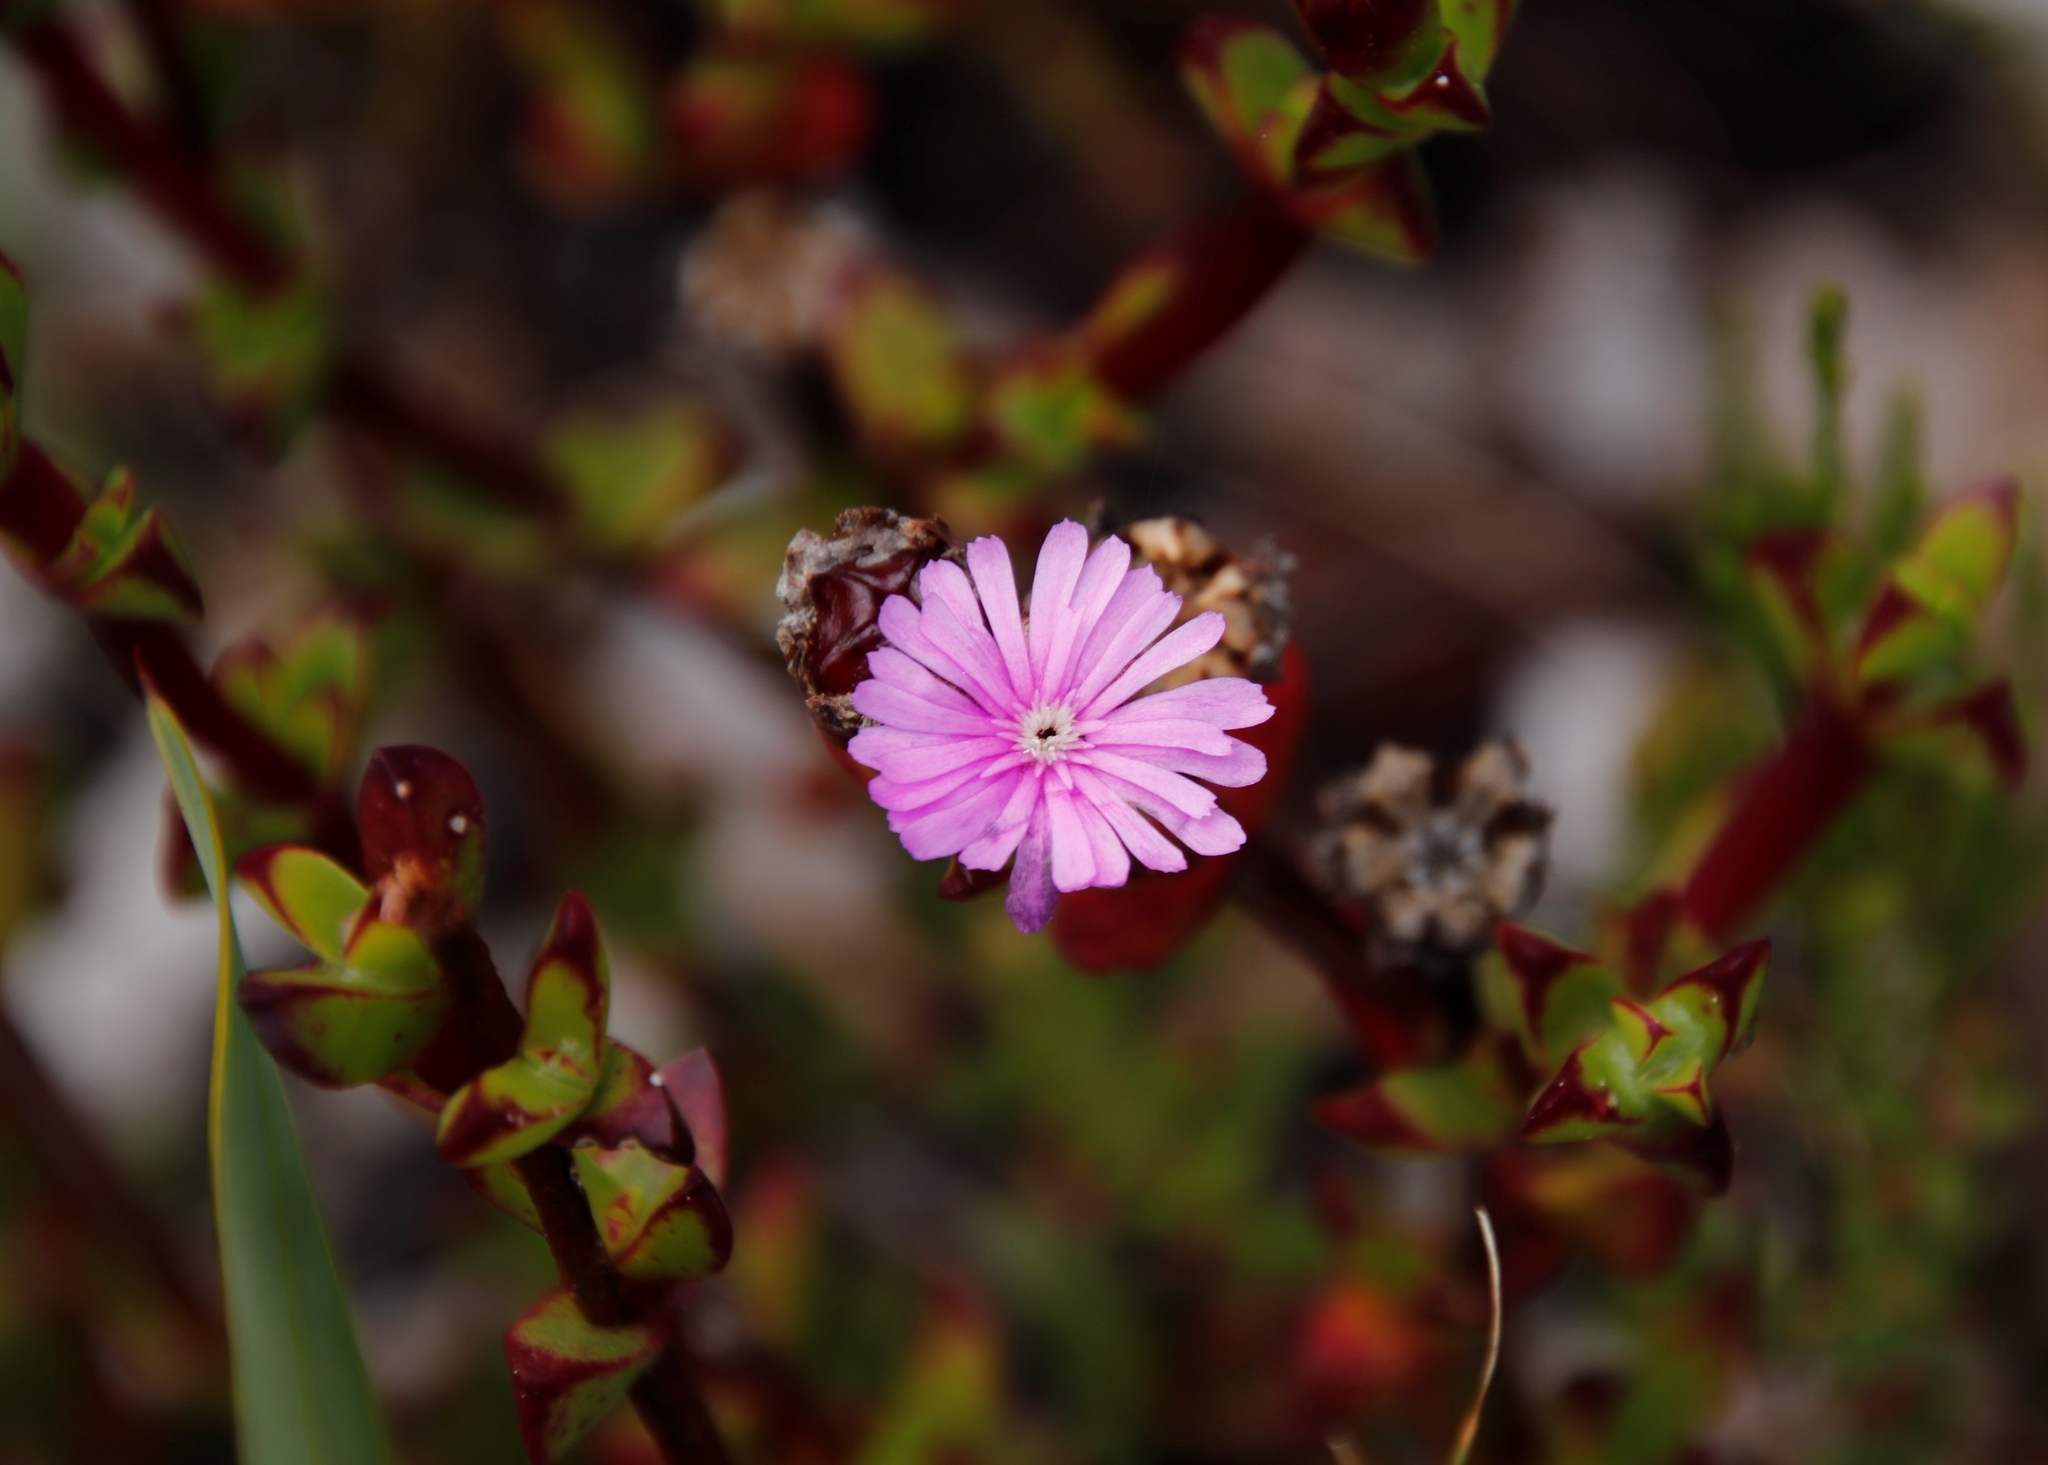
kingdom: Plantae
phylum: Tracheophyta
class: Magnoliopsida
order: Caryophyllales
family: Aizoaceae
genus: Erepsia
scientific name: Erepsia inclaudens
